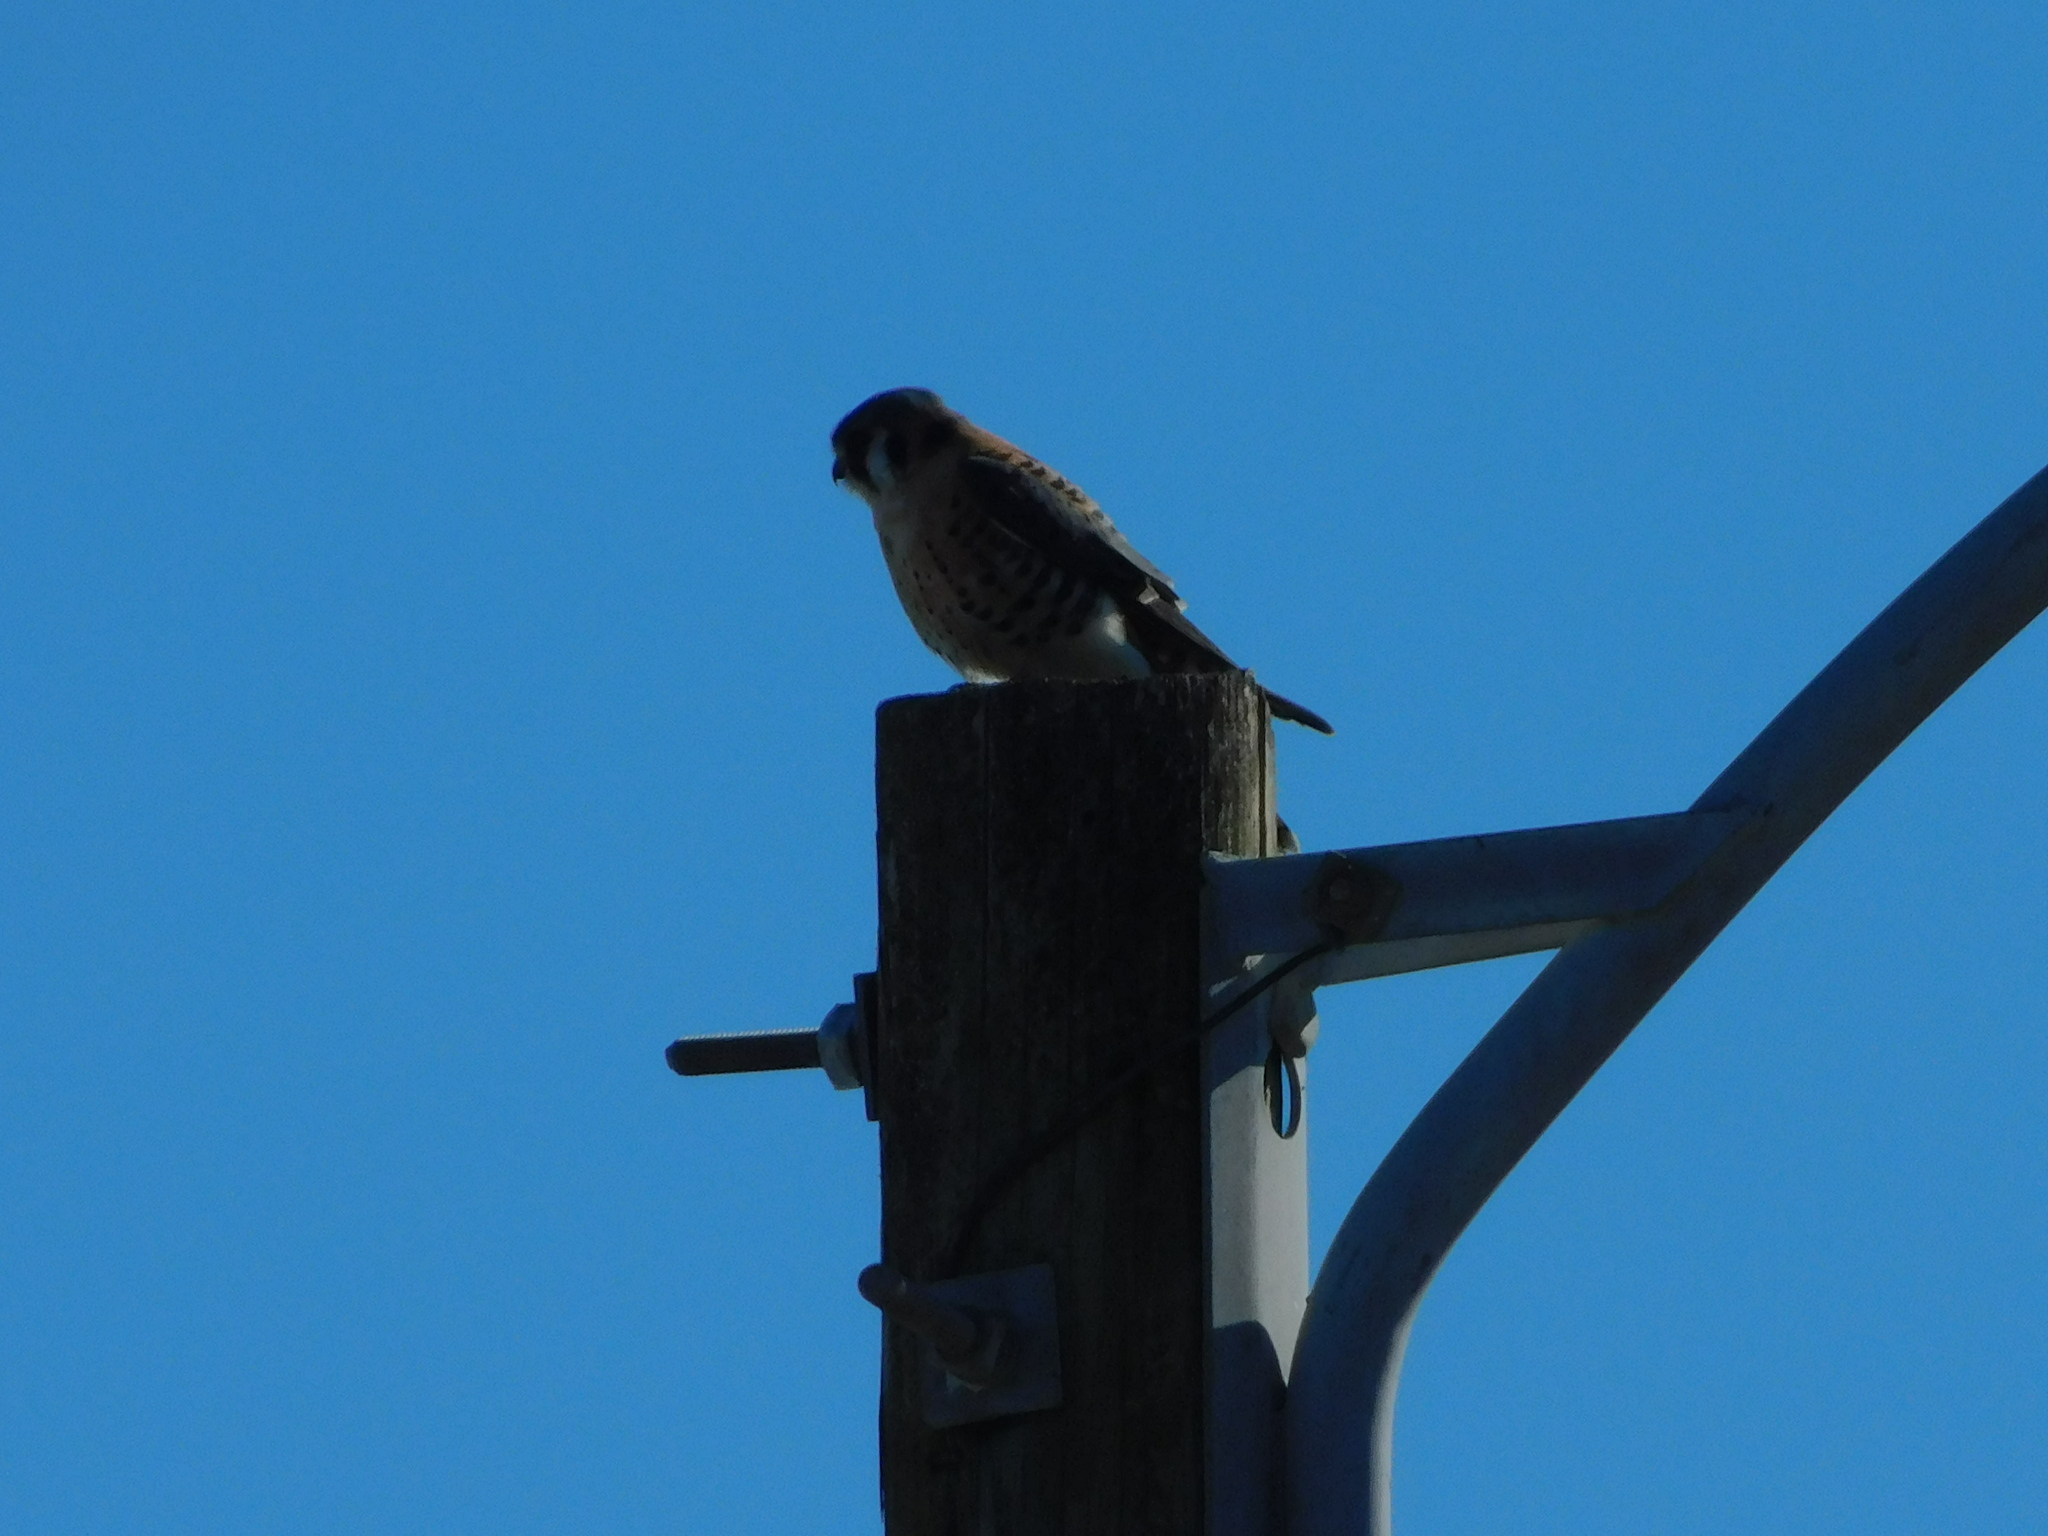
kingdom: Animalia
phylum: Chordata
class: Aves
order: Falconiformes
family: Falconidae
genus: Falco
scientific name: Falco sparverius
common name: American kestrel
